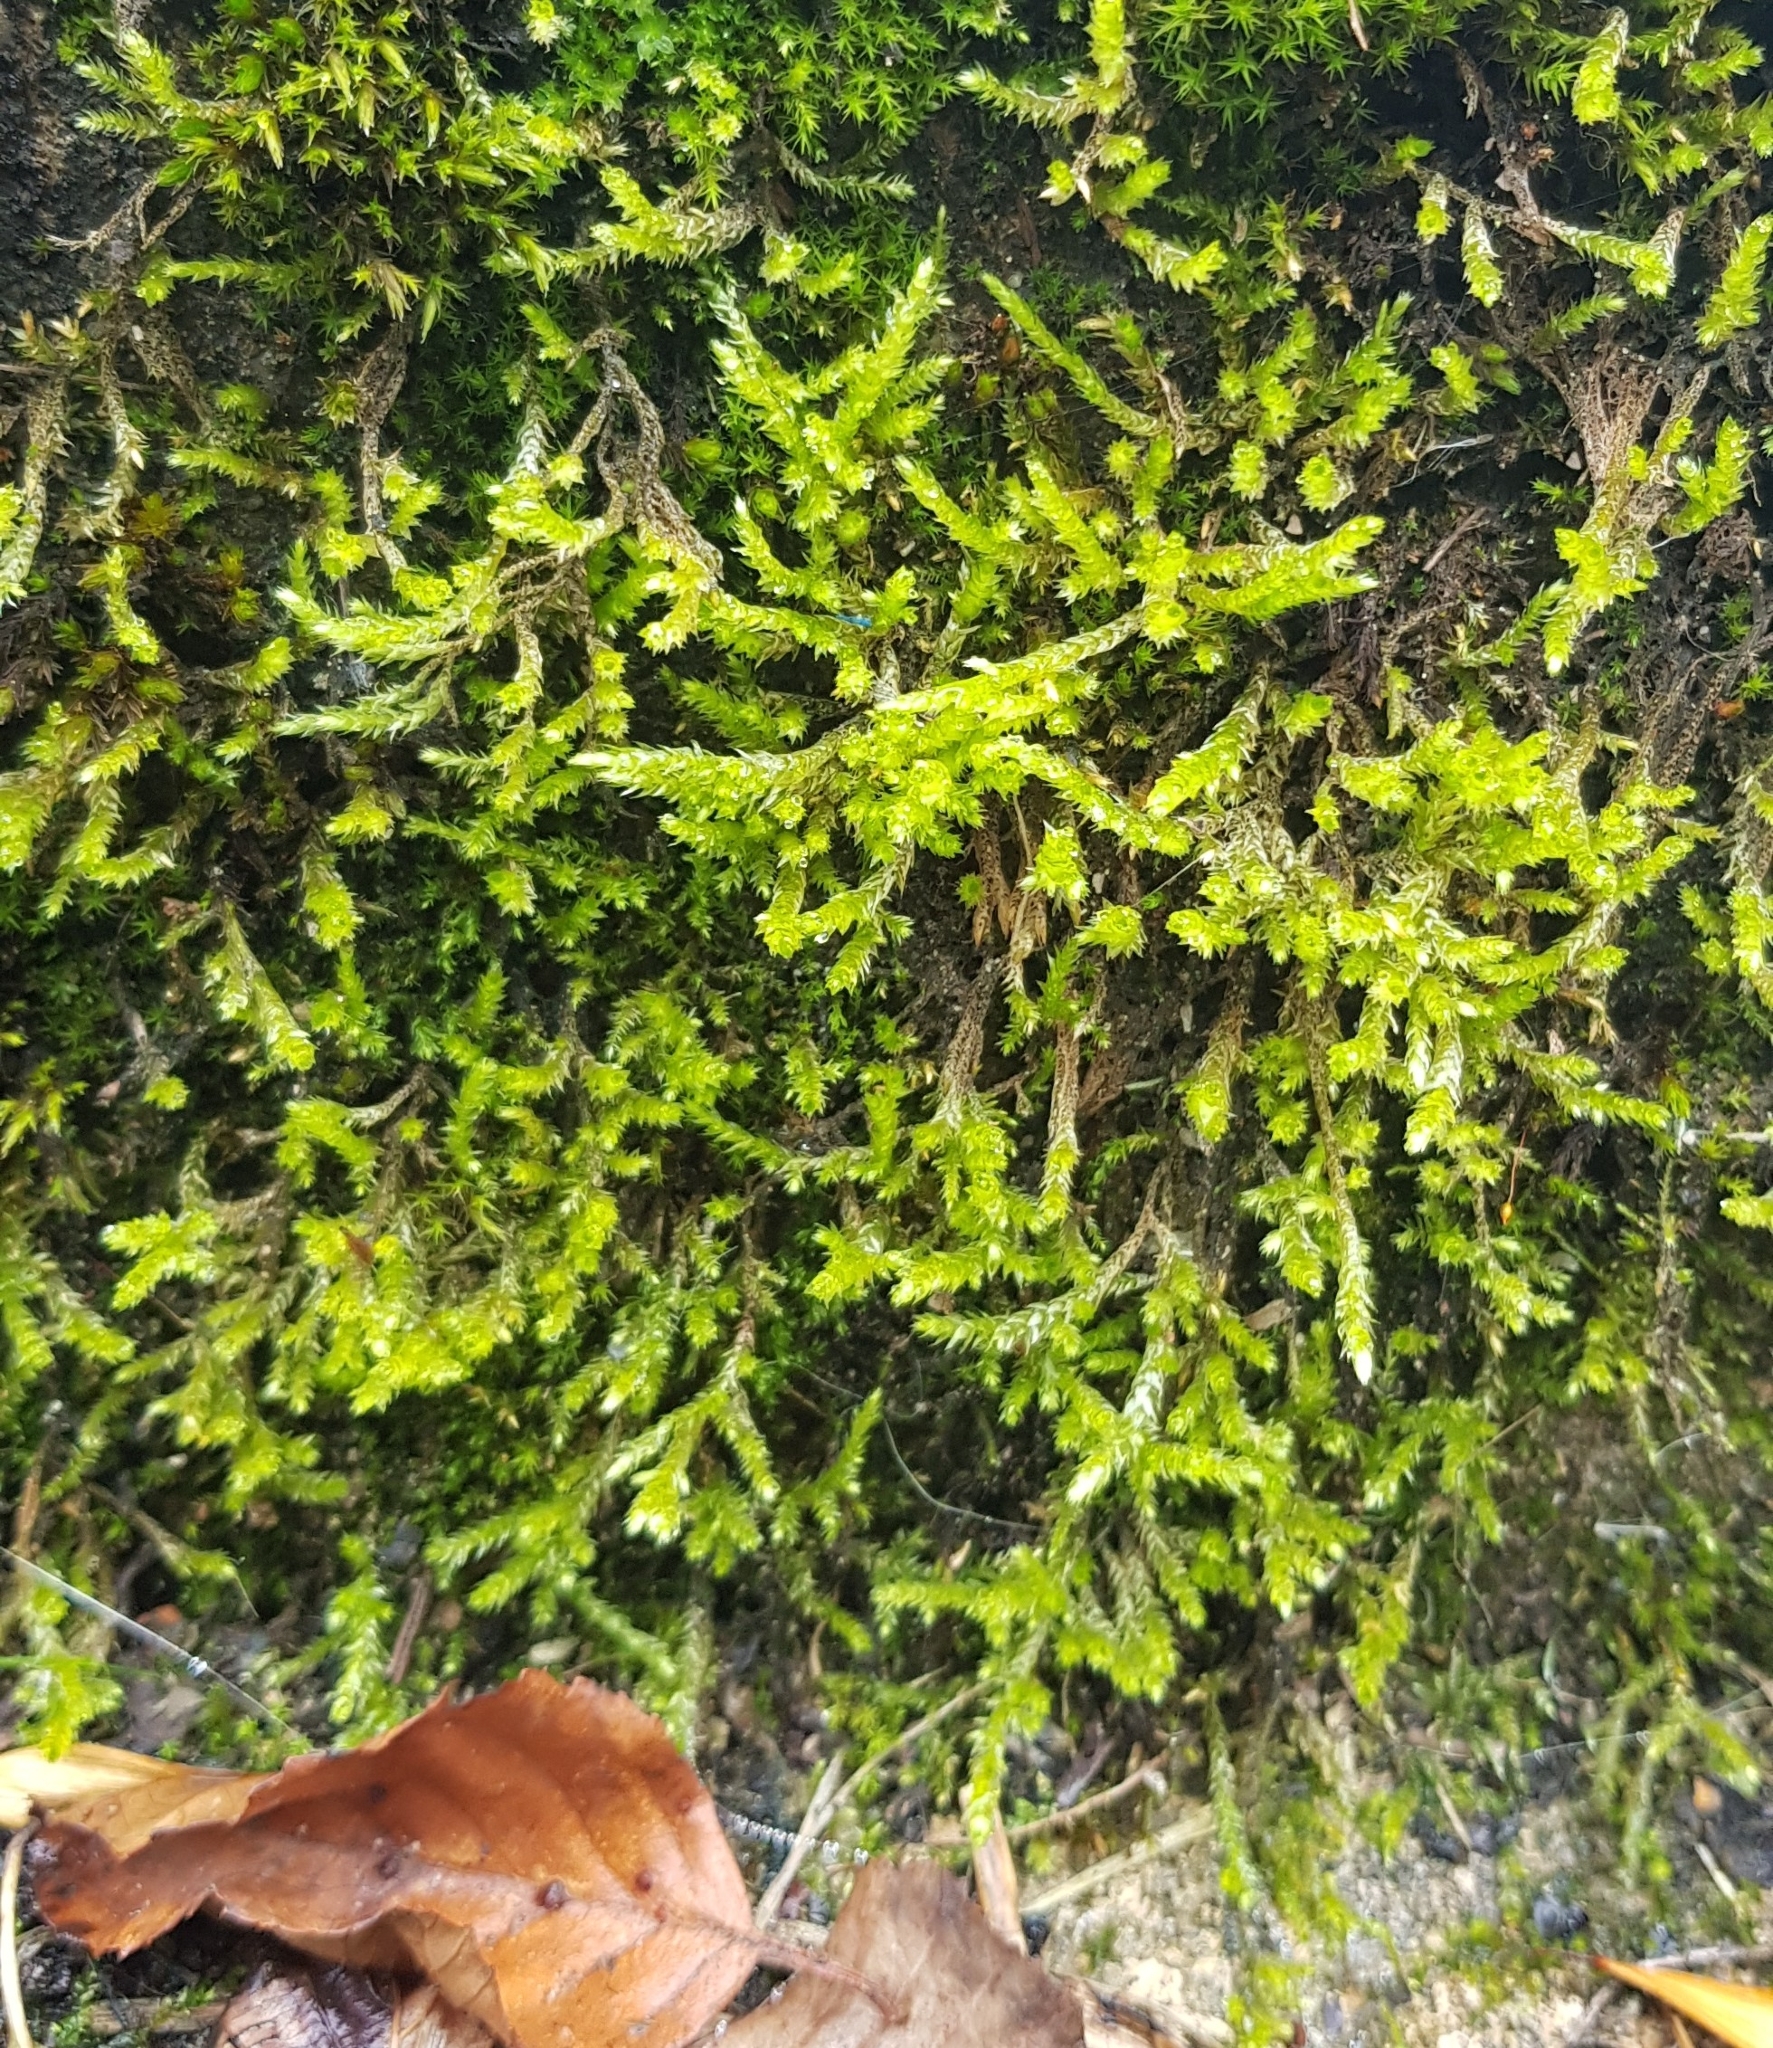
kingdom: Plantae
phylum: Bryophyta
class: Bryopsida
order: Hypnales
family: Brachytheciaceae
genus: Brachythecium
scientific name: Brachythecium rutabulum
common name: Rough-stalked feather-moss
